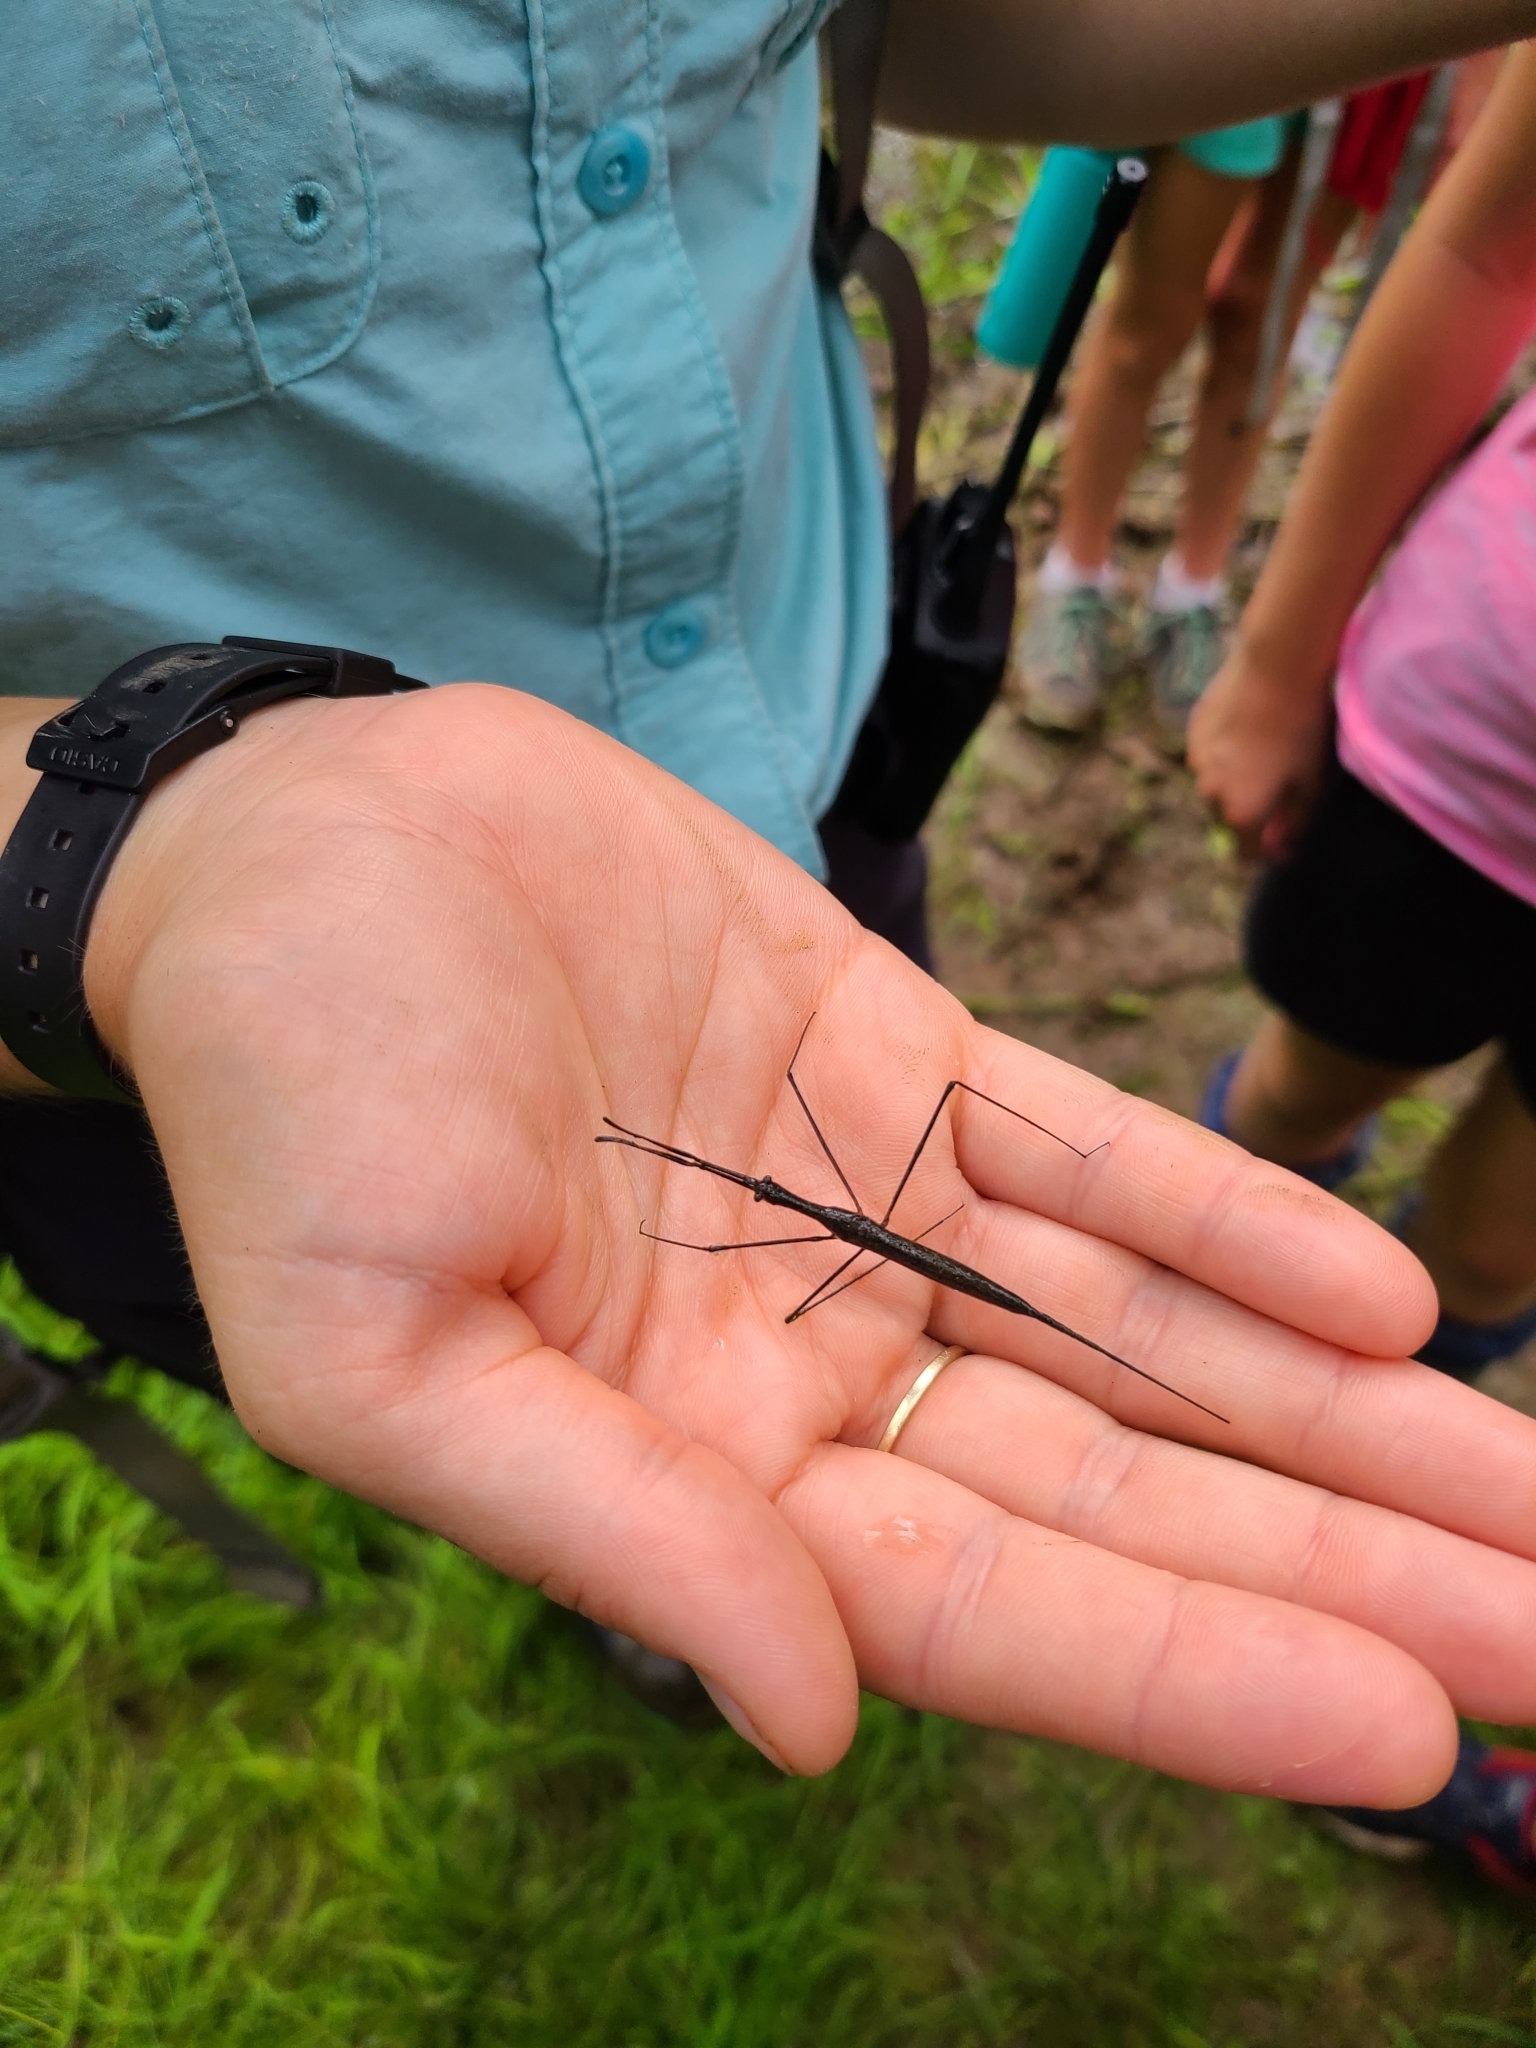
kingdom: Animalia
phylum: Arthropoda
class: Insecta
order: Hemiptera
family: Nepidae
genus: Ranatra
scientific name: Ranatra
